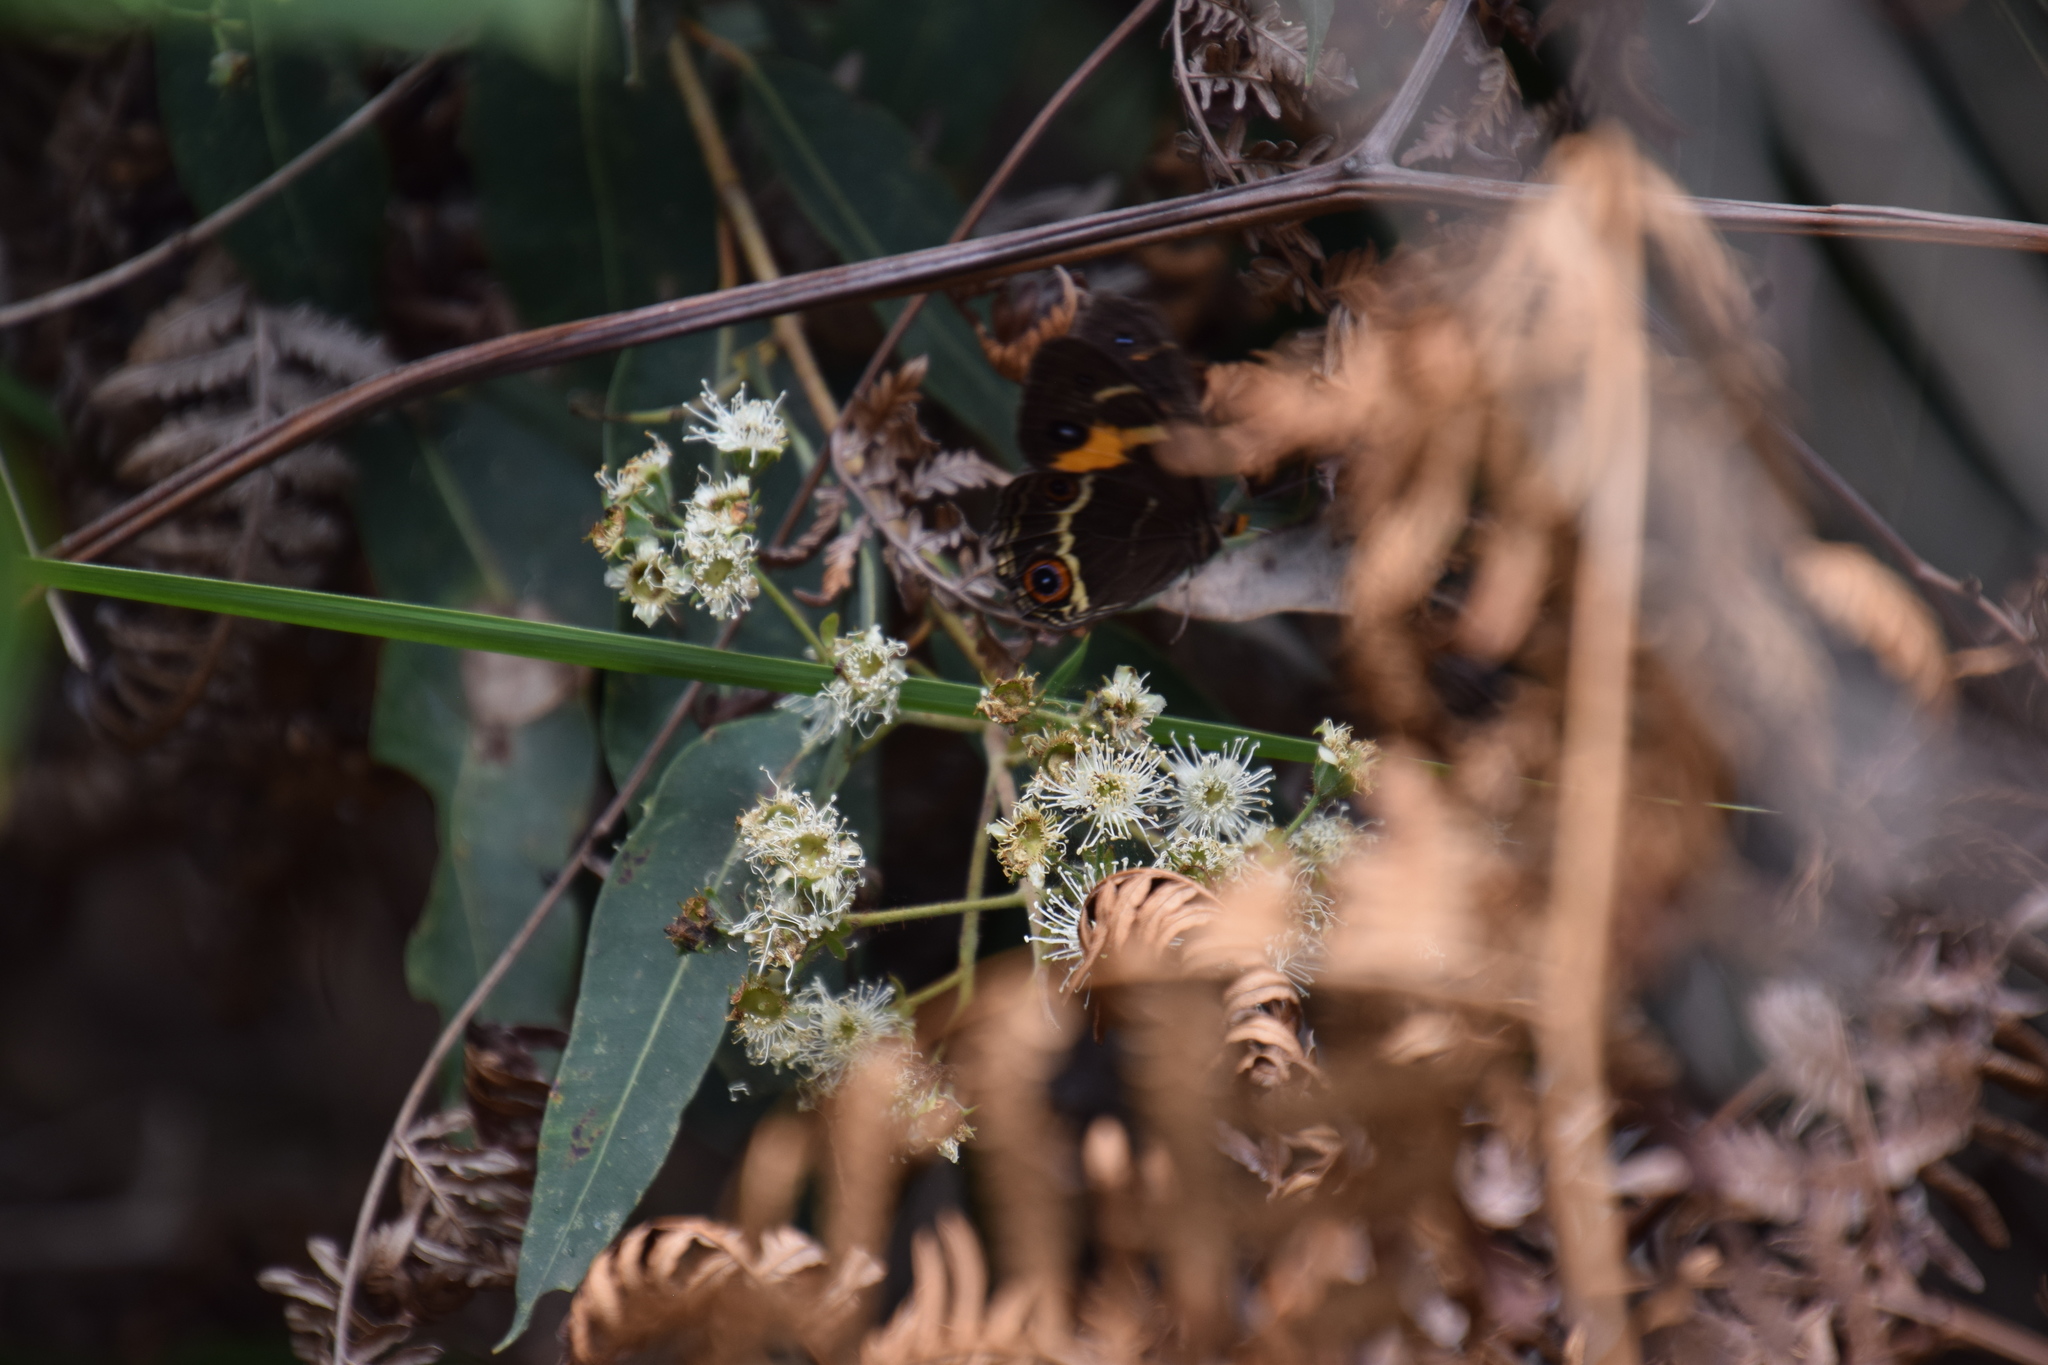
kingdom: Animalia
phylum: Arthropoda
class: Insecta
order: Lepidoptera
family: Nymphalidae
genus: Tisiphone
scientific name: Tisiphone abeona
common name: Swordgrass brown
